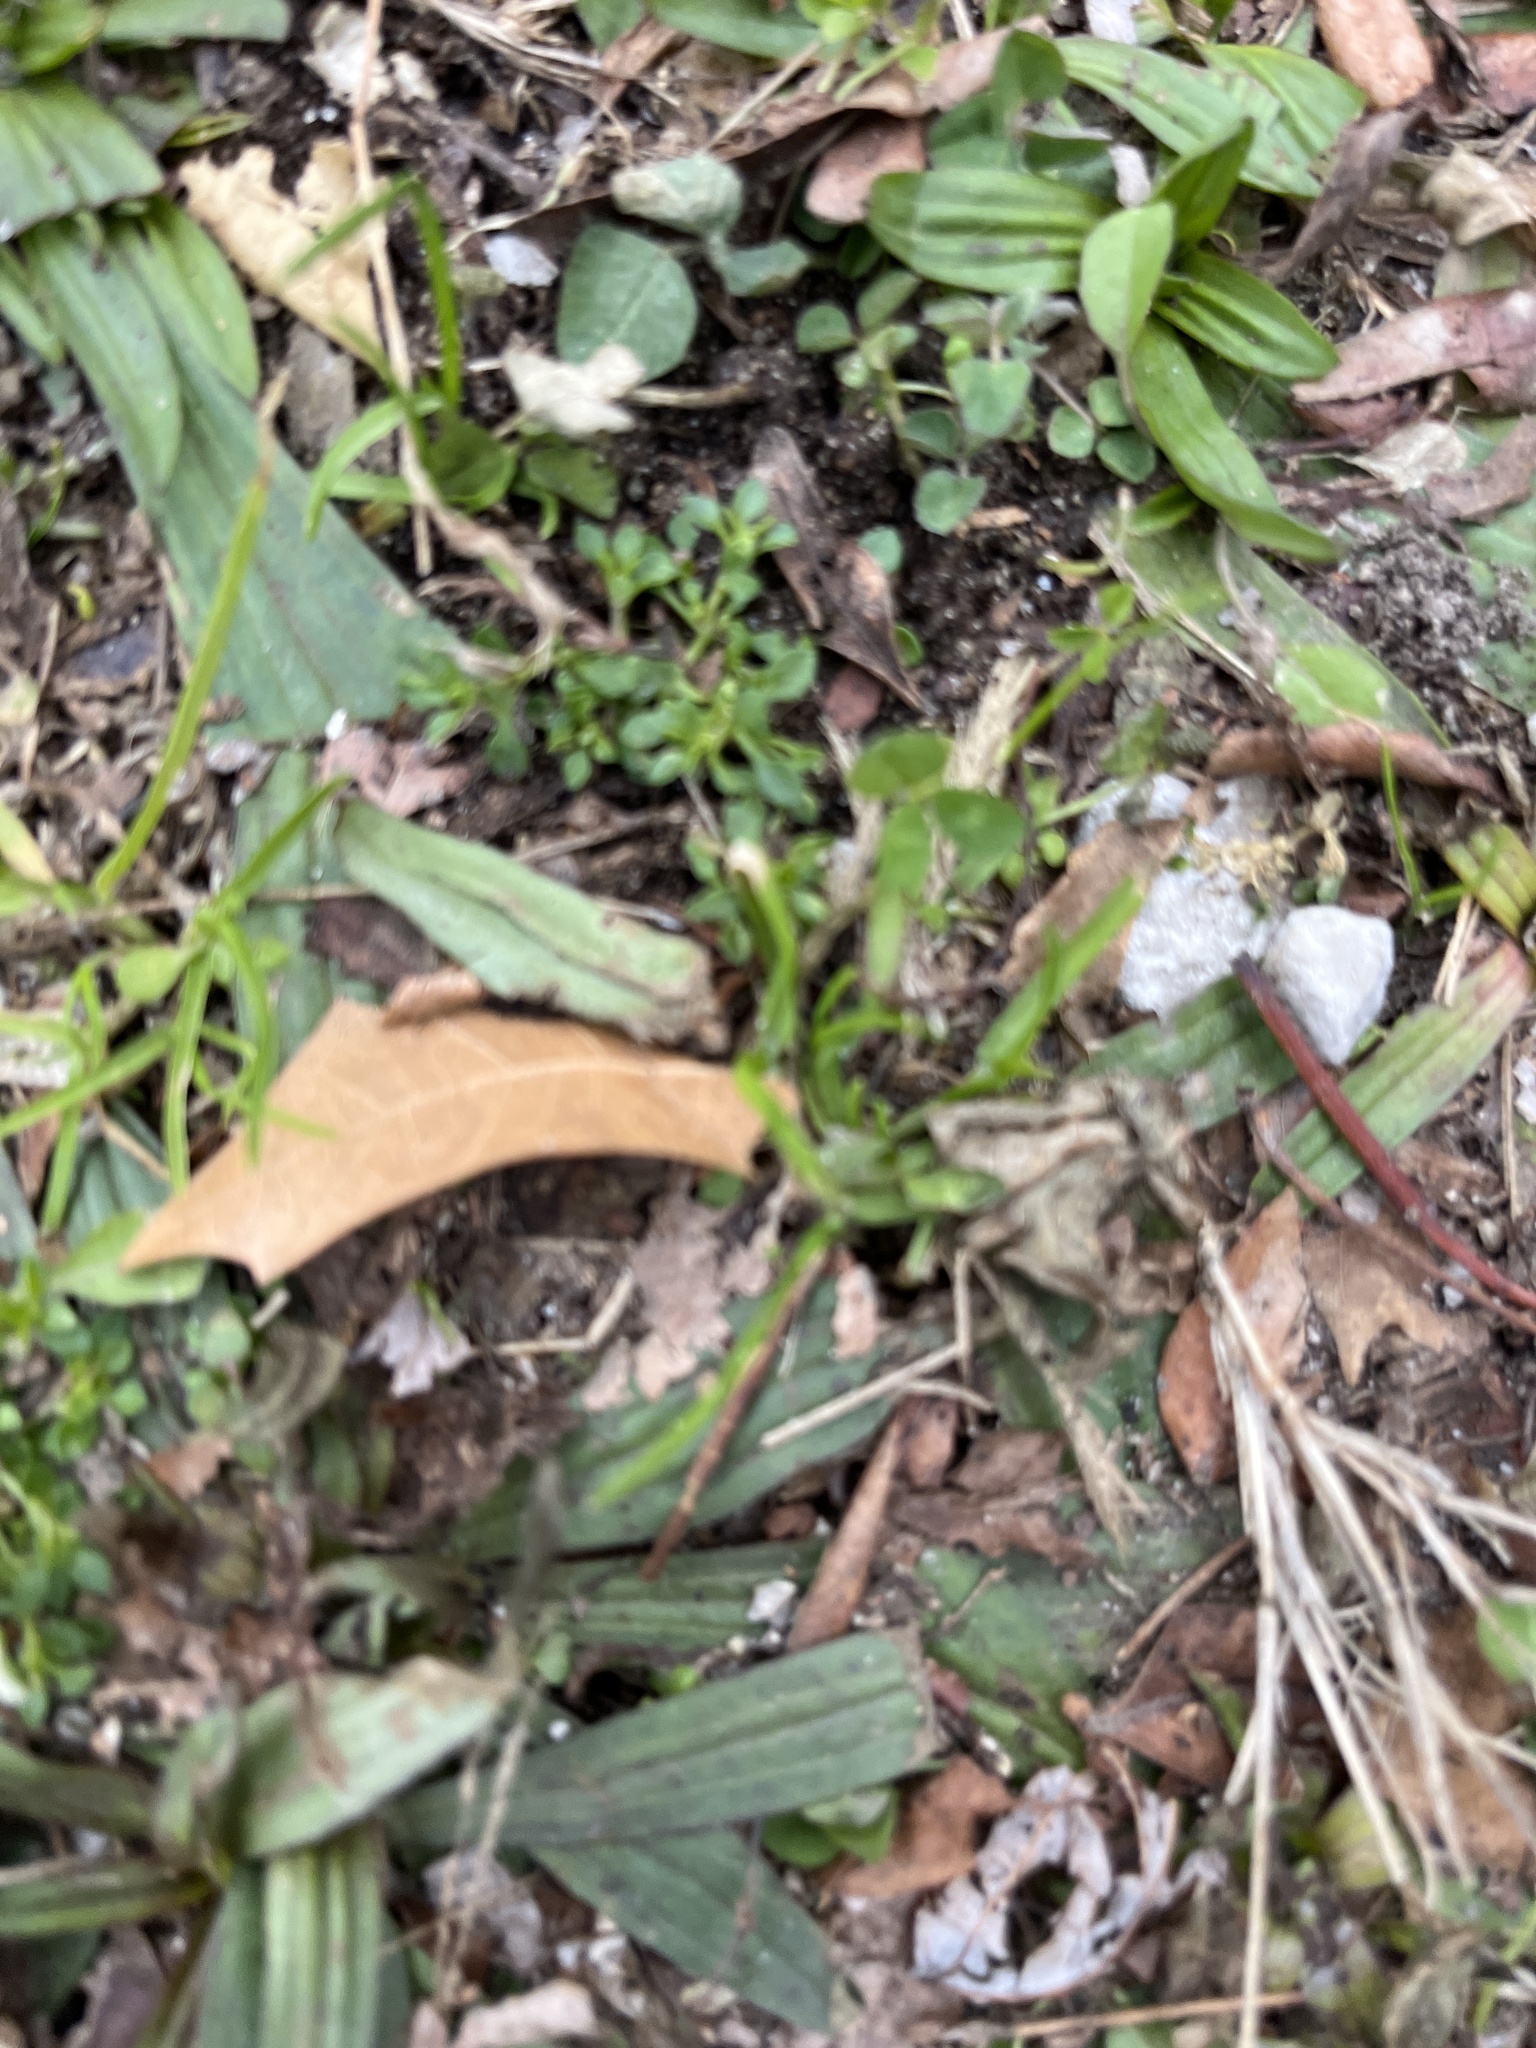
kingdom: Plantae
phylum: Tracheophyta
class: Magnoliopsida
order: Lamiales
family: Plantaginaceae
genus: Plantago
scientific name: Plantago lanceolata
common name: Ribwort plantain
